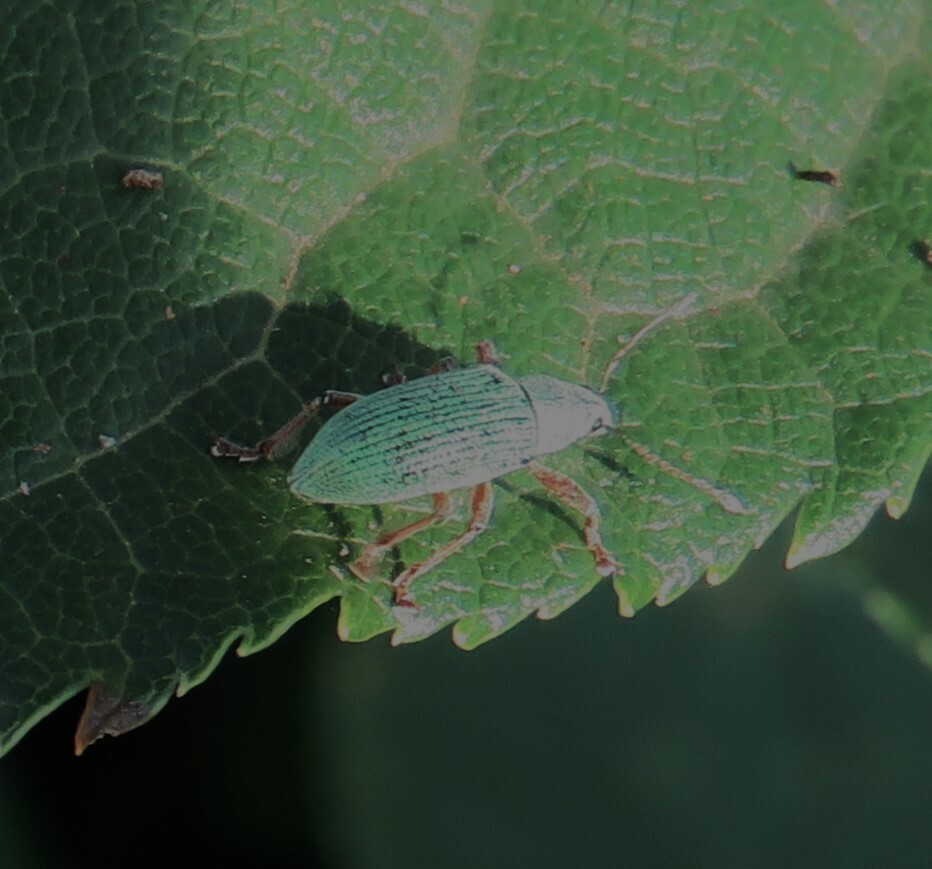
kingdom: Animalia
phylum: Arthropoda
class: Insecta
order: Coleoptera
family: Curculionidae
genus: Polydrusus
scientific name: Polydrusus formosus
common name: Weevil
